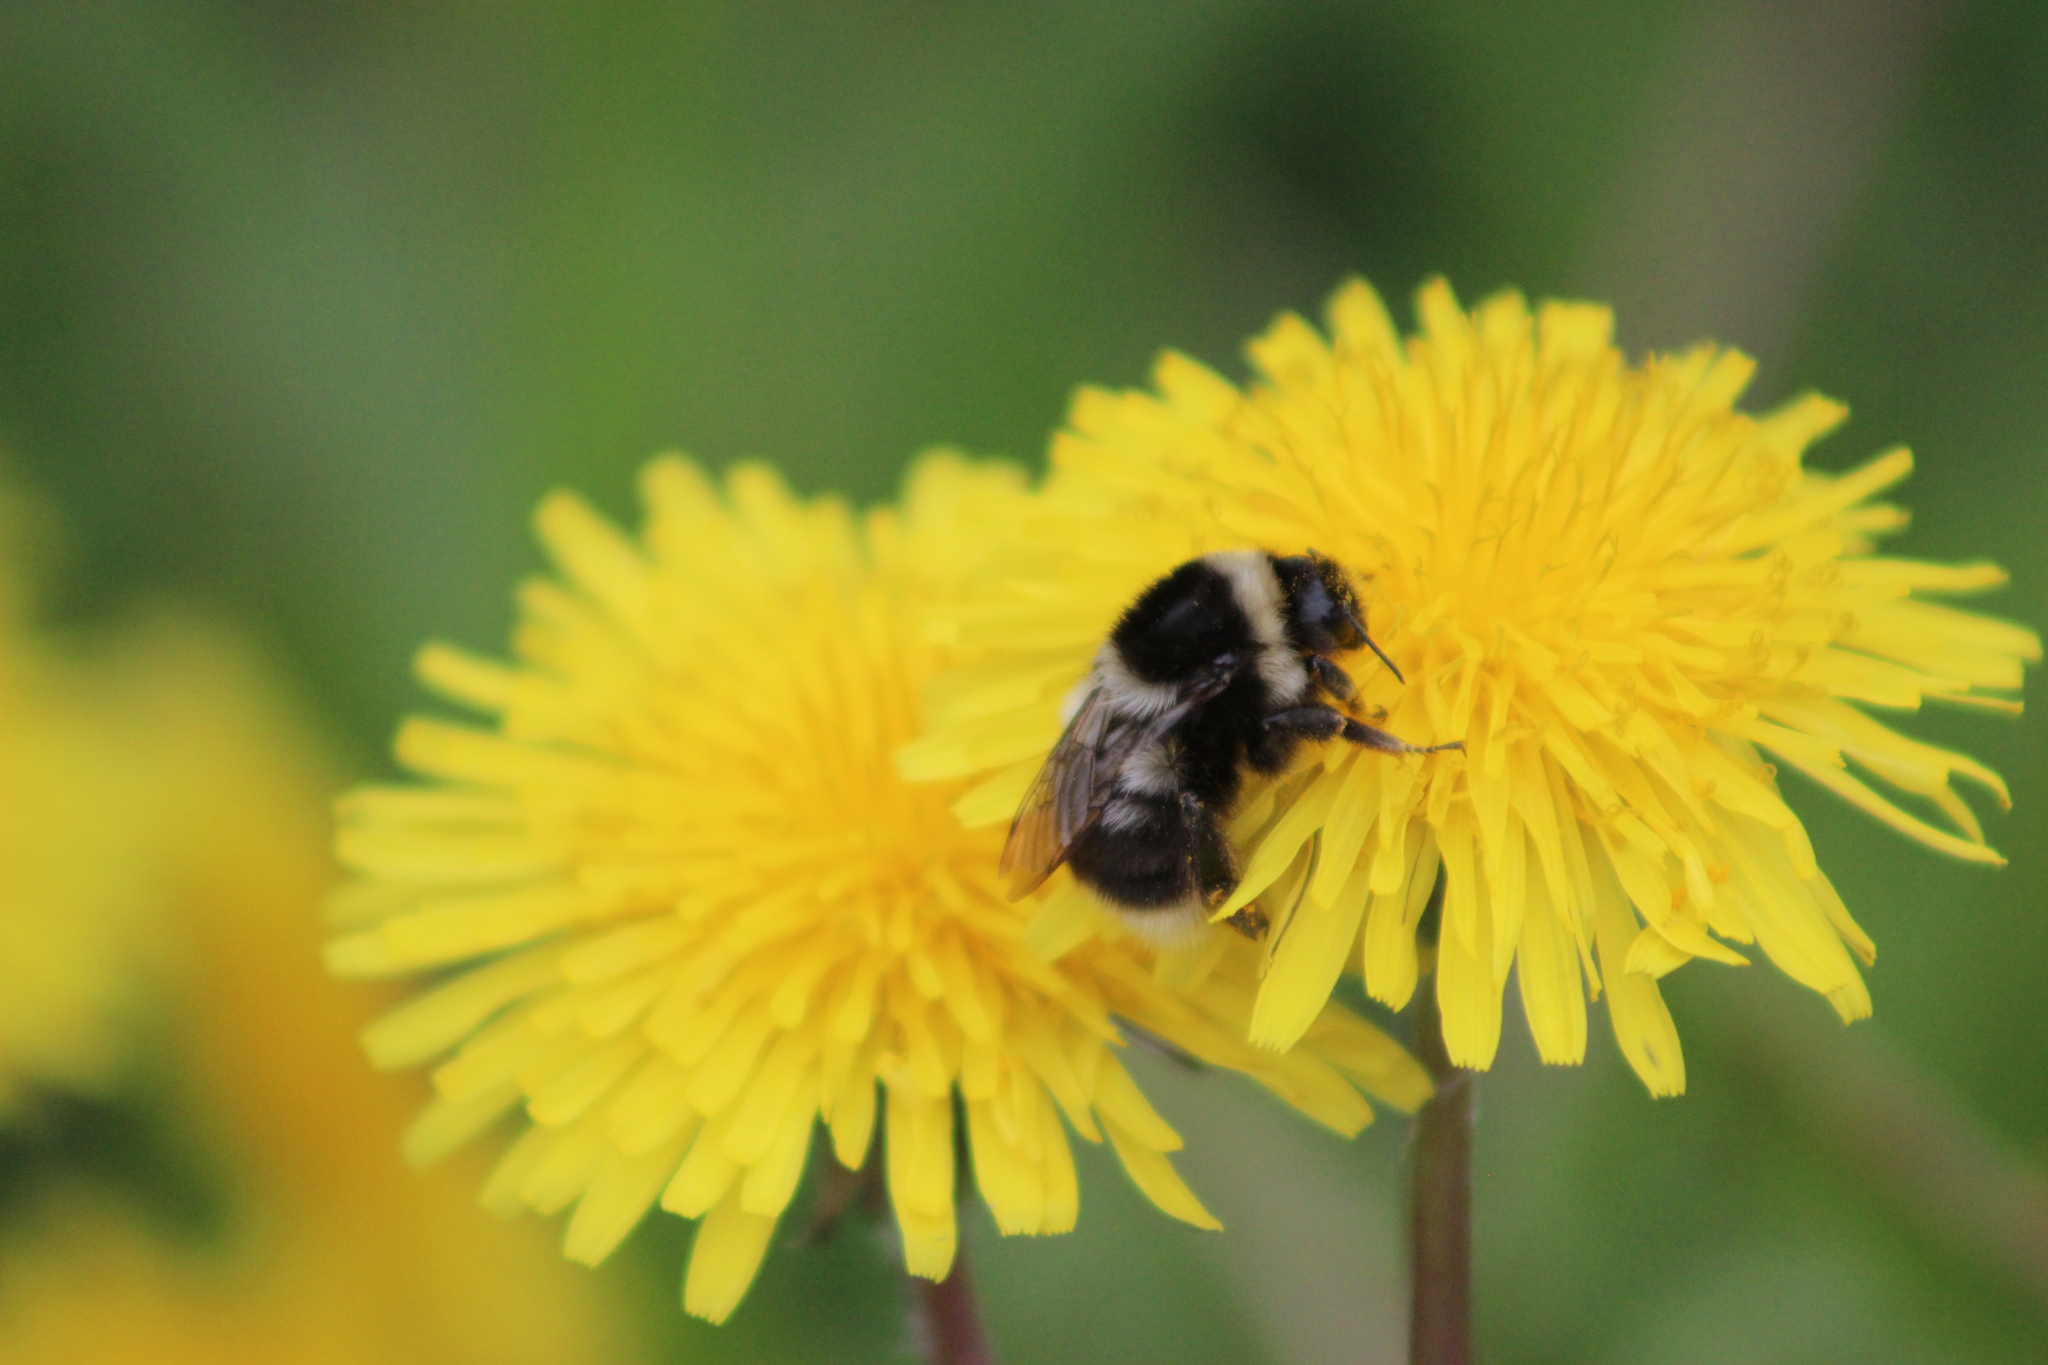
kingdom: Animalia
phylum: Arthropoda
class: Insecta
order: Hymenoptera
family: Apidae
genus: Bombus
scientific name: Bombus sichelii
